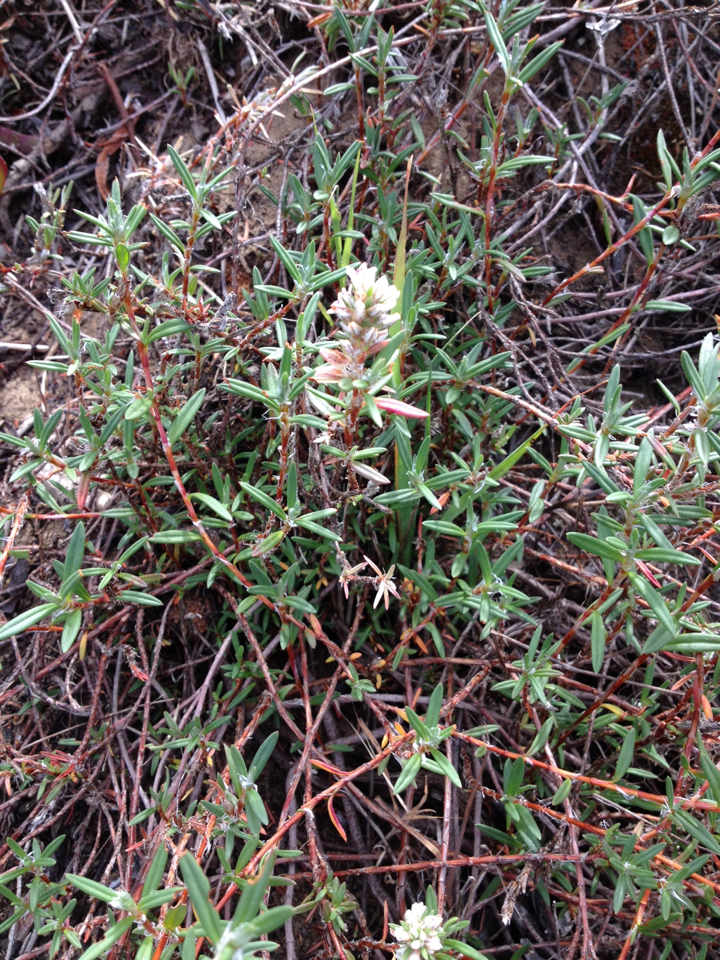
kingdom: Plantae
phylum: Tracheophyta
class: Magnoliopsida
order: Caryophyllales
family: Polygonaceae
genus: Polygonum
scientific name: Polygonum paronychia
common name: Dune knotweed
